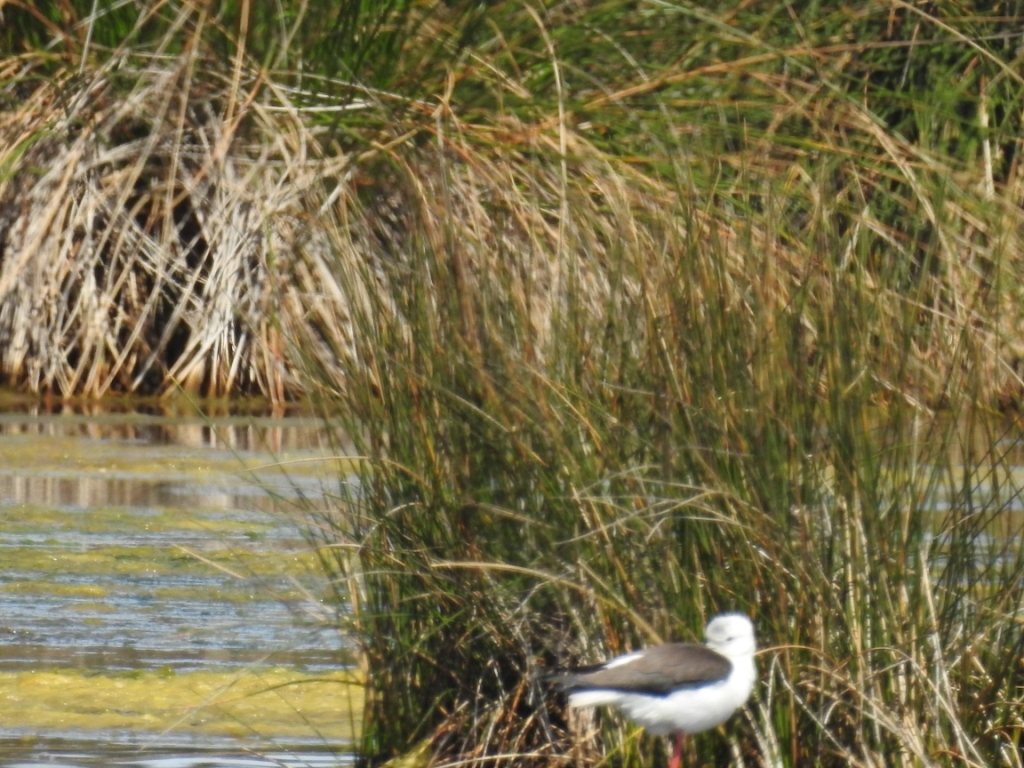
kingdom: Animalia
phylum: Chordata
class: Aves
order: Charadriiformes
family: Recurvirostridae
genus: Himantopus
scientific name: Himantopus himantopus
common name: Black-winged stilt
